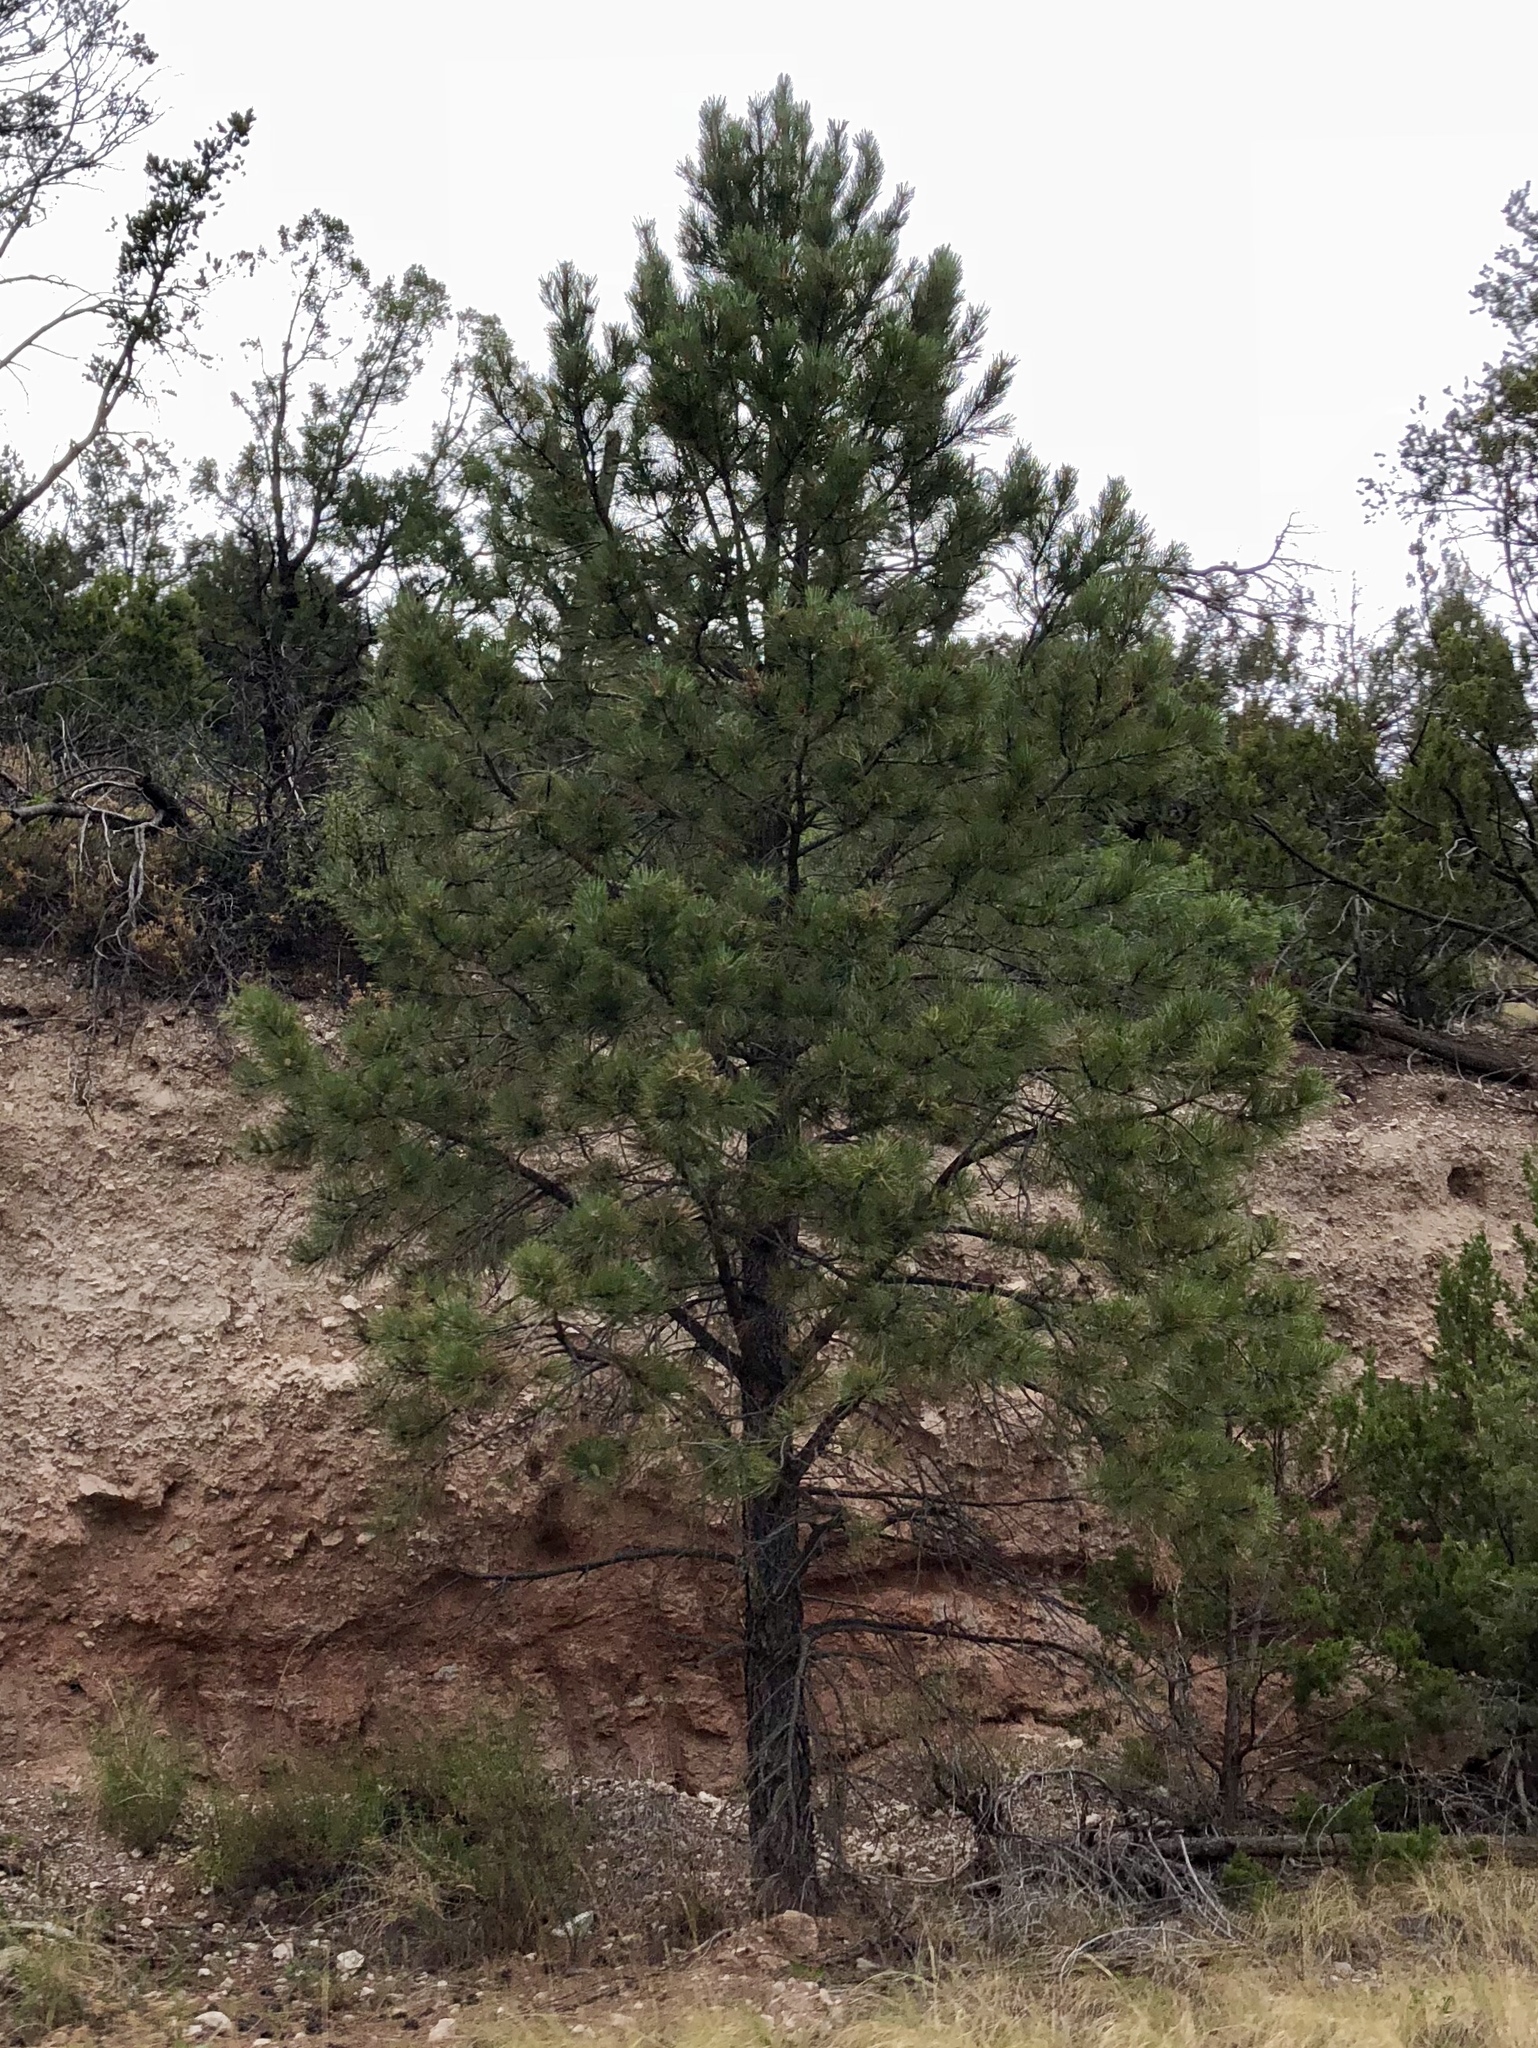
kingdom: Plantae
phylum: Tracheophyta
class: Pinopsida
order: Pinales
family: Pinaceae
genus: Pinus
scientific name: Pinus ponderosa
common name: Western yellow-pine
